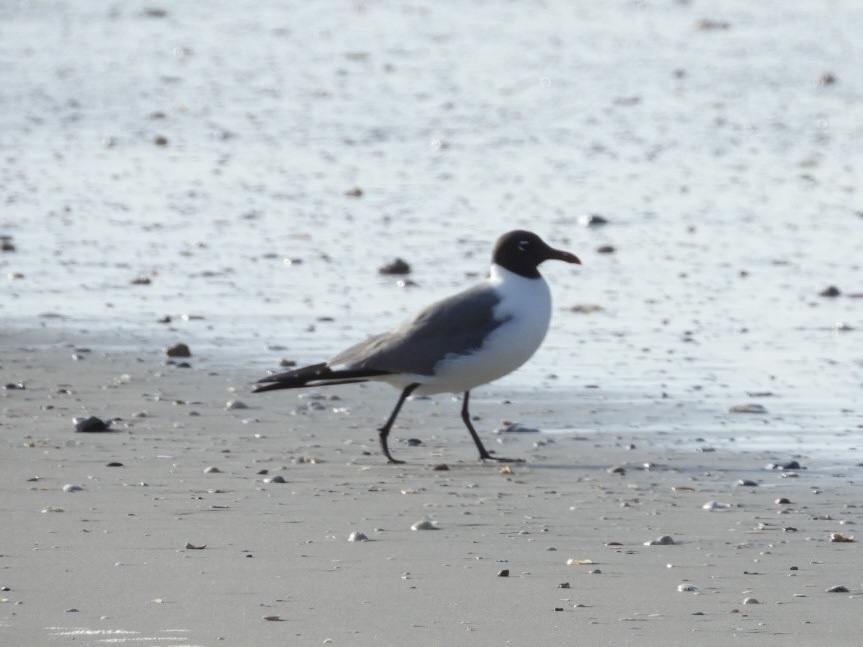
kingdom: Animalia
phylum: Chordata
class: Aves
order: Charadriiformes
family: Laridae
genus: Leucophaeus
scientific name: Leucophaeus atricilla
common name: Laughing gull
